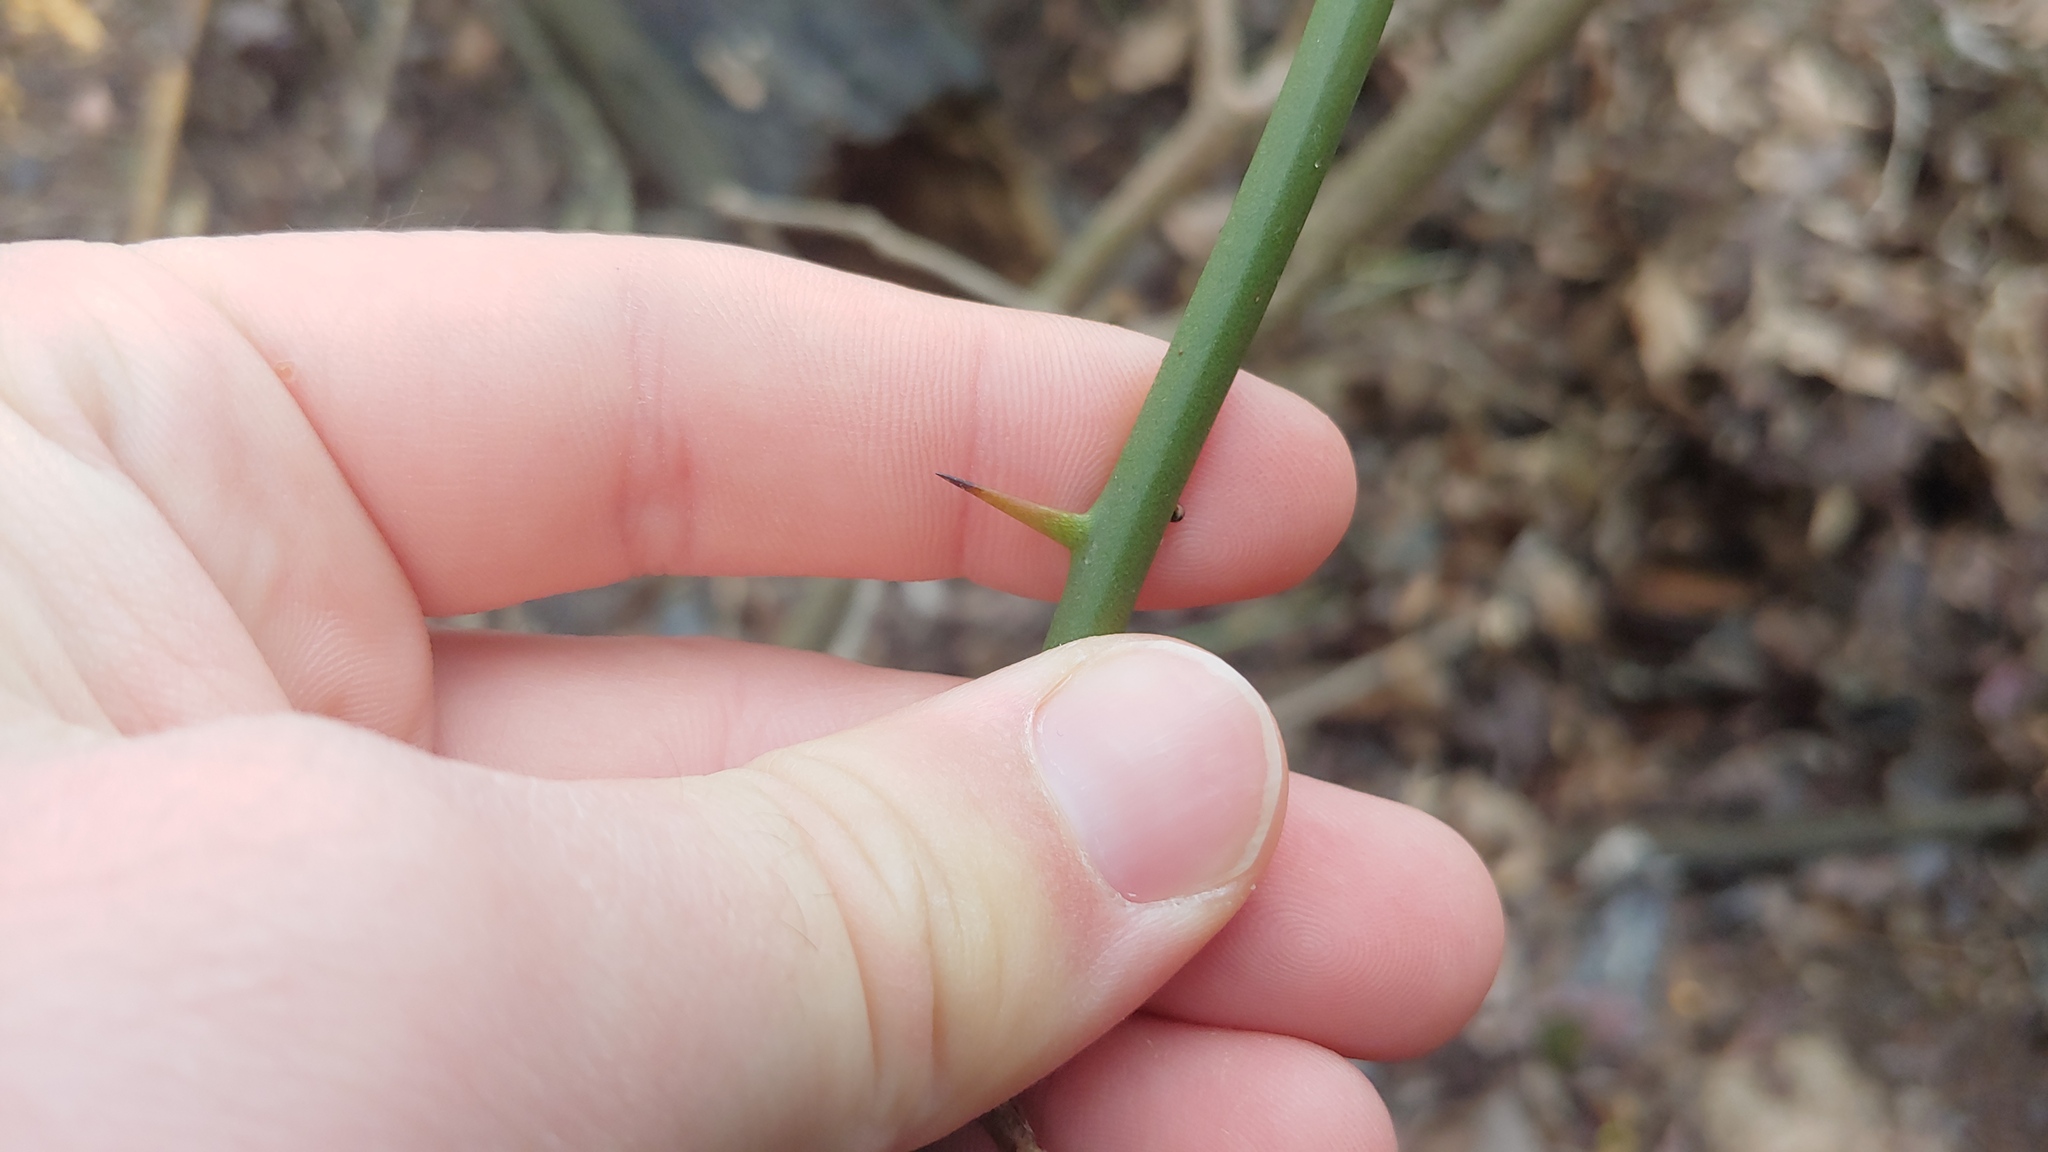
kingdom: Plantae
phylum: Tracheophyta
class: Liliopsida
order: Liliales
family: Smilacaceae
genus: Smilax
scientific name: Smilax rotundifolia
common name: Bullbriar
